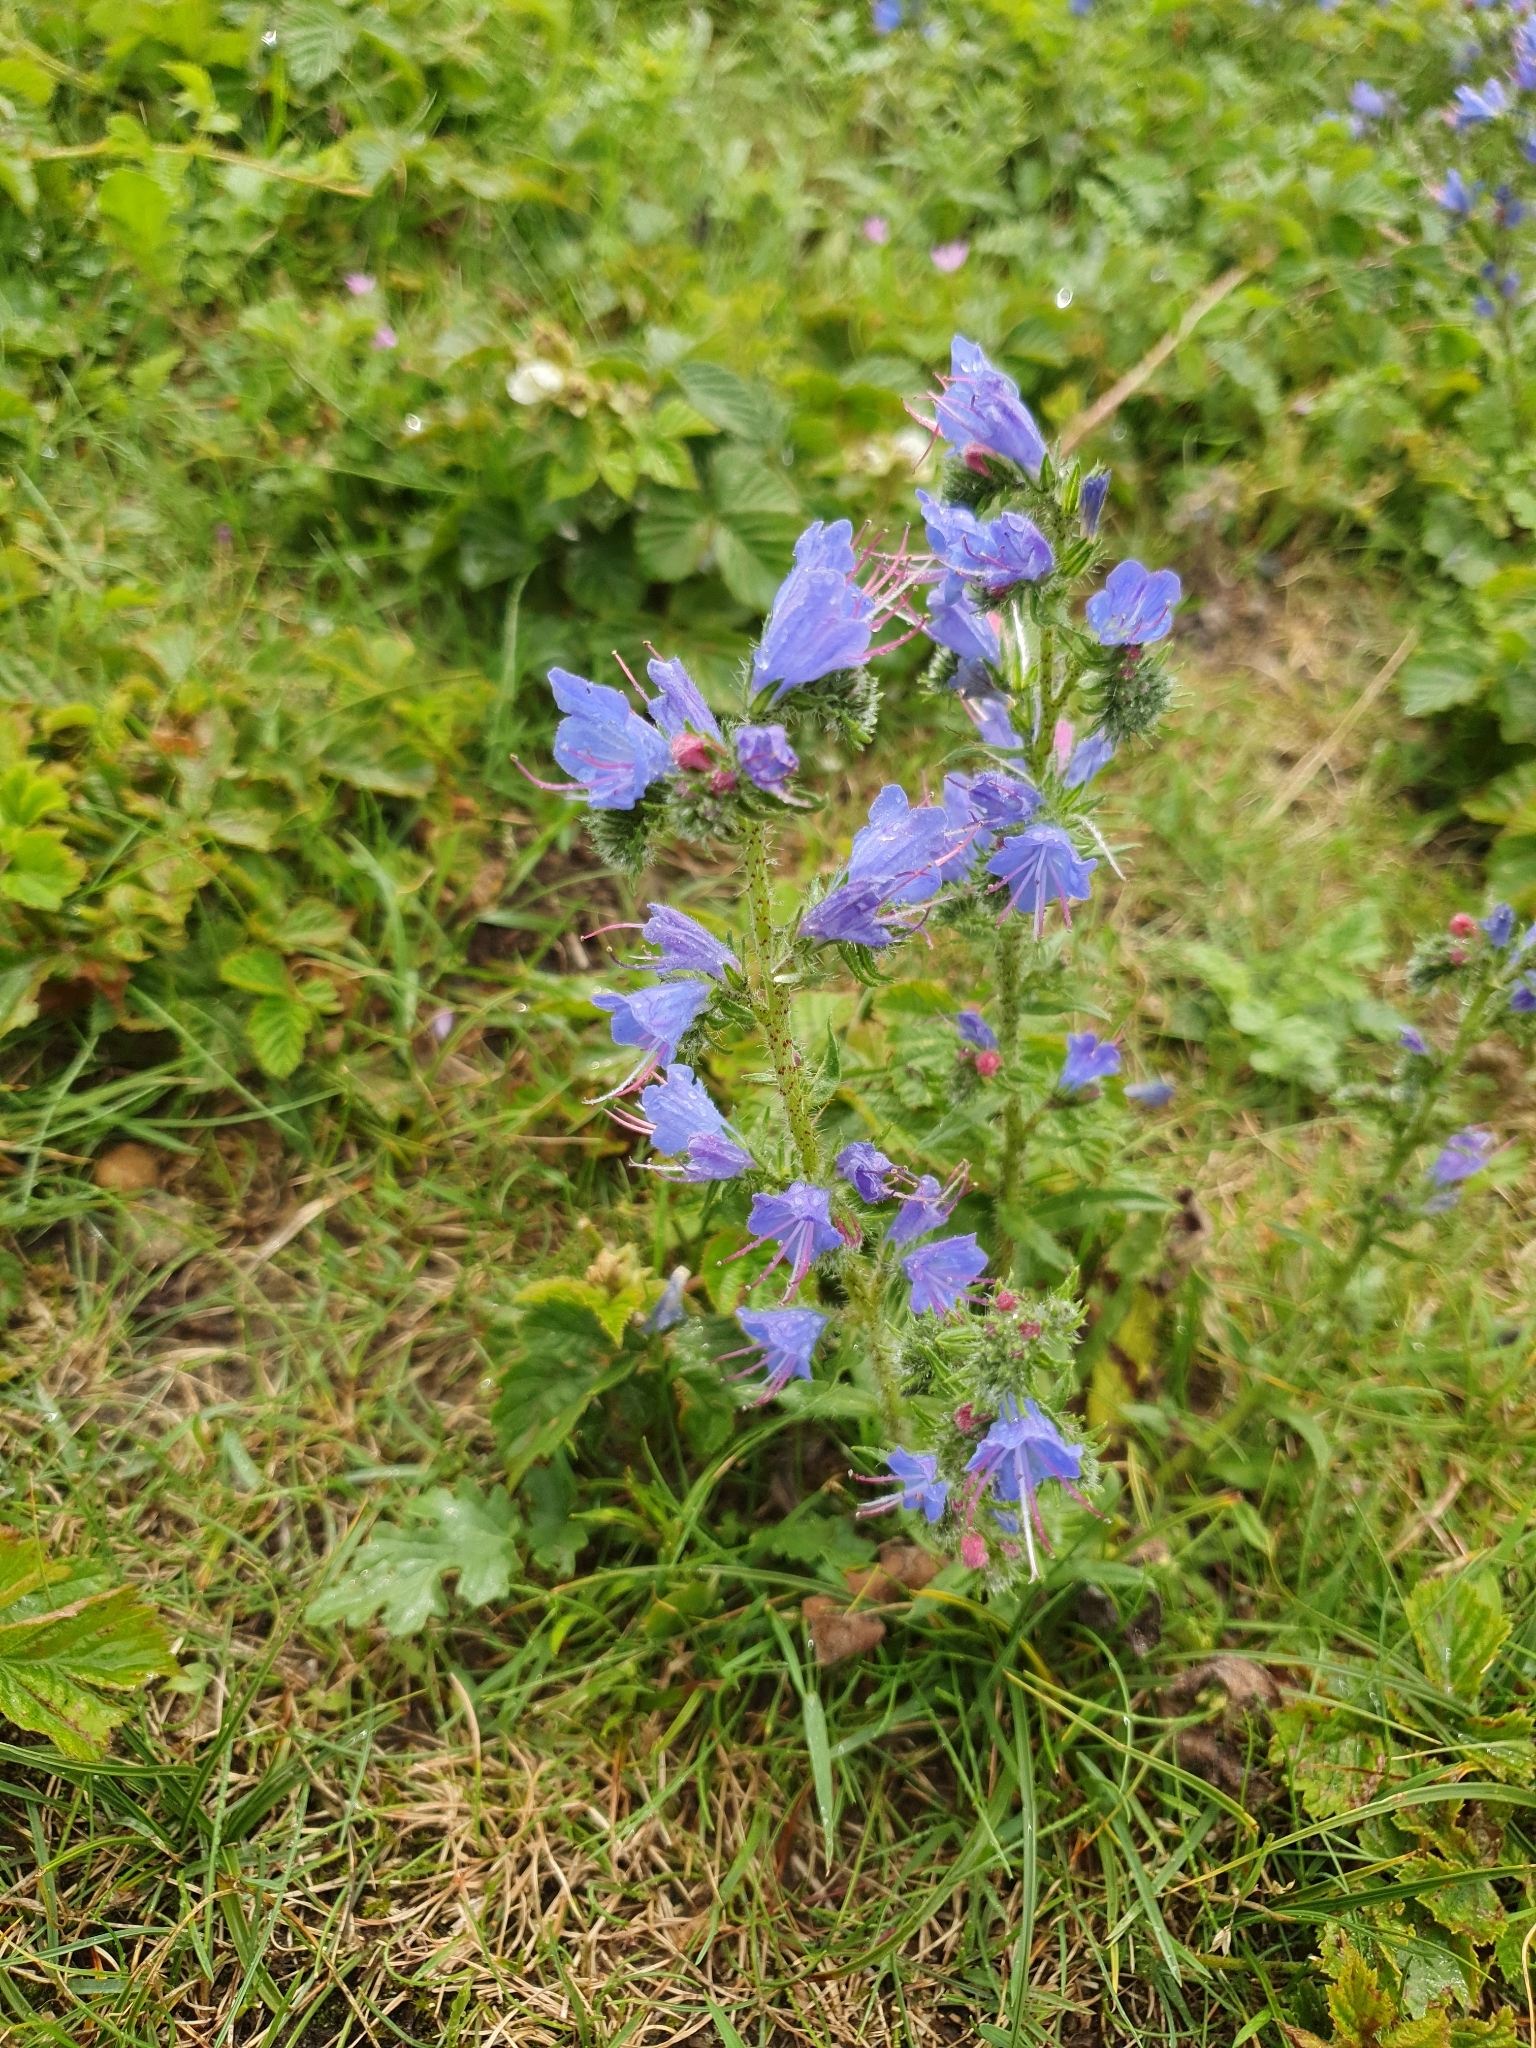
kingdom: Plantae
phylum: Tracheophyta
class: Magnoliopsida
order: Boraginales
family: Boraginaceae
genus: Echium
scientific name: Echium vulgare
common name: Common viper's bugloss
